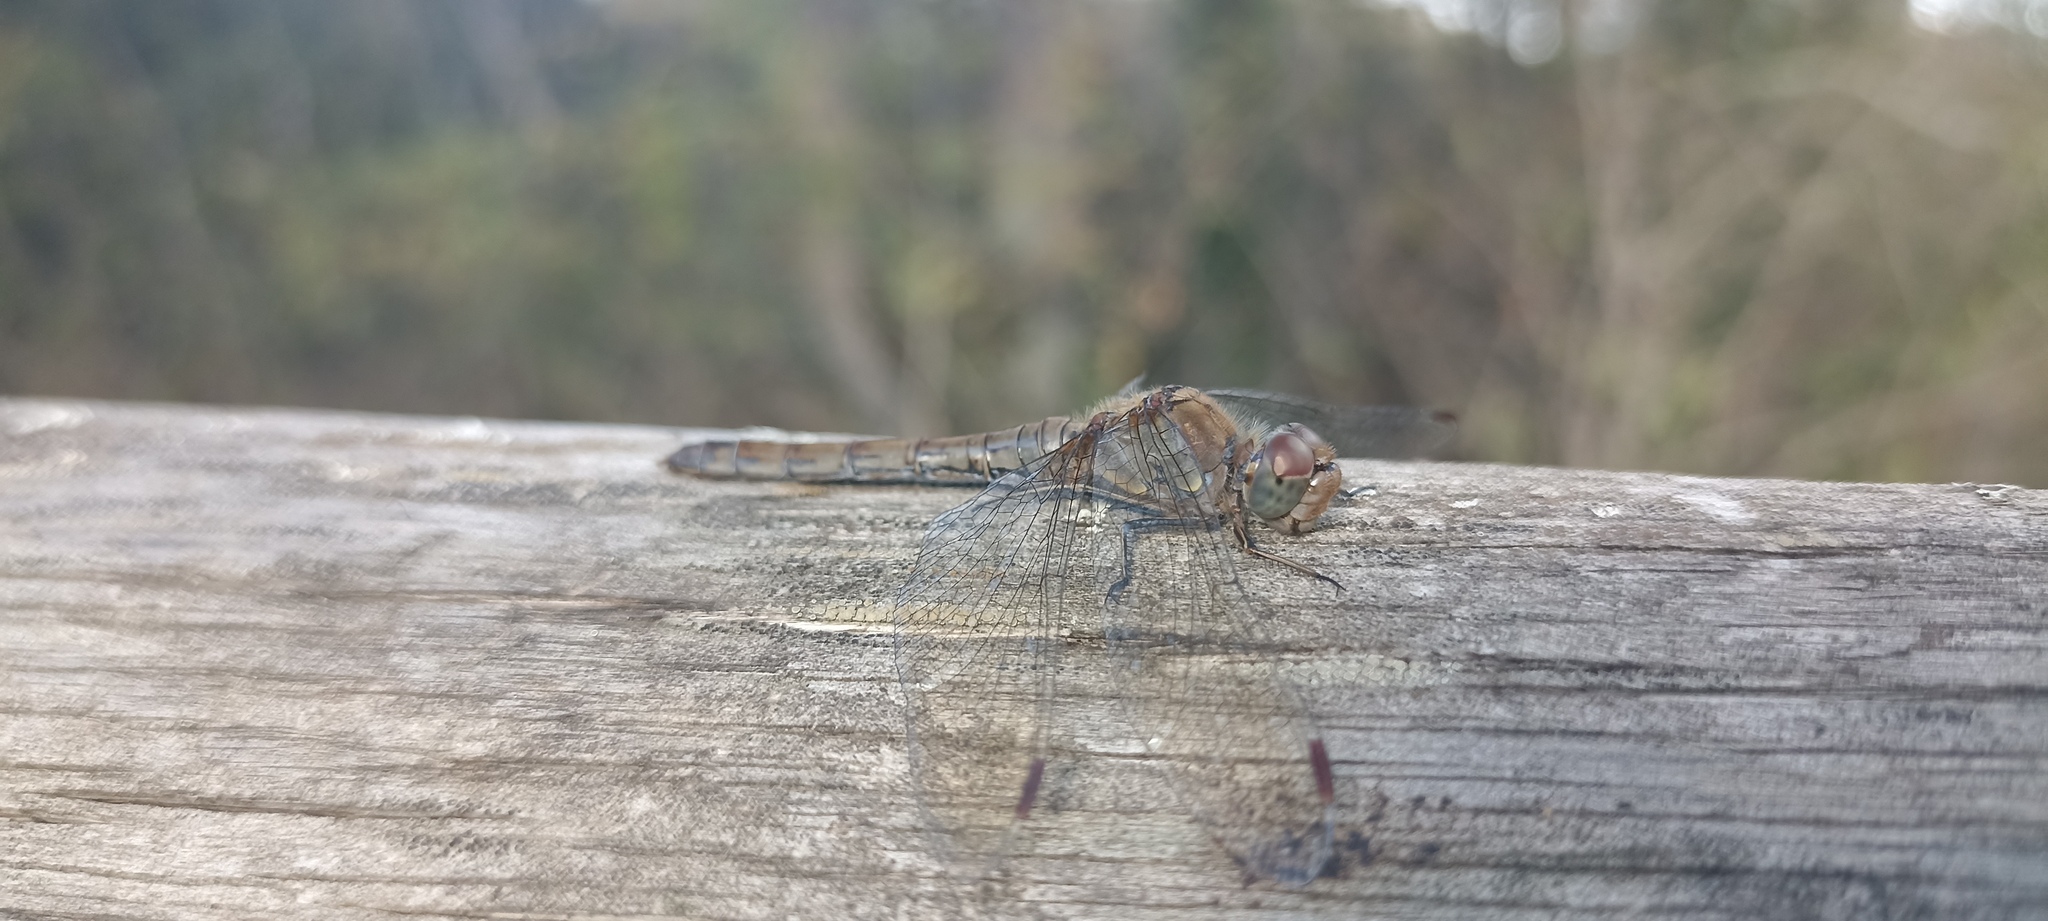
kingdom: Animalia
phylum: Arthropoda
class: Insecta
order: Odonata
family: Libellulidae
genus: Sympetrum
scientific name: Sympetrum striolatum
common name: Common darter
